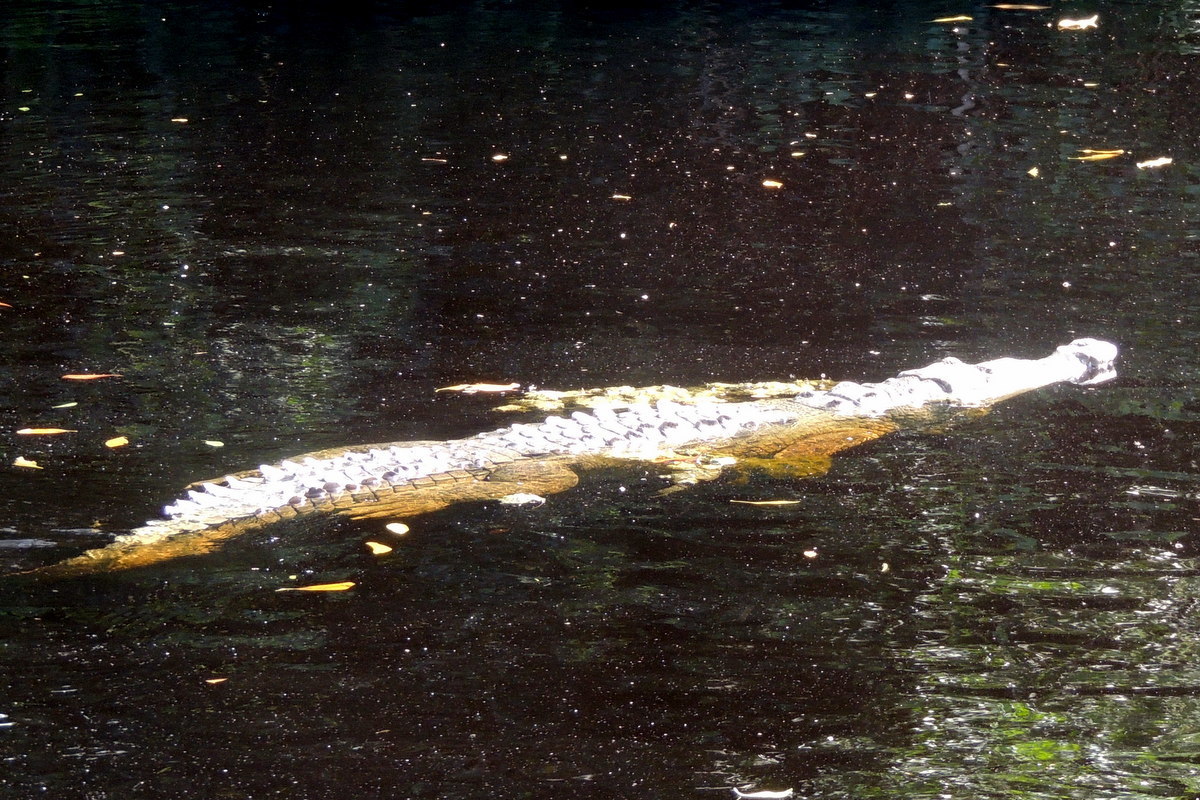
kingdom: Animalia
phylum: Chordata
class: Crocodylia
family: Crocodylidae
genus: Crocodylus
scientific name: Crocodylus acutus
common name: American crocodile
